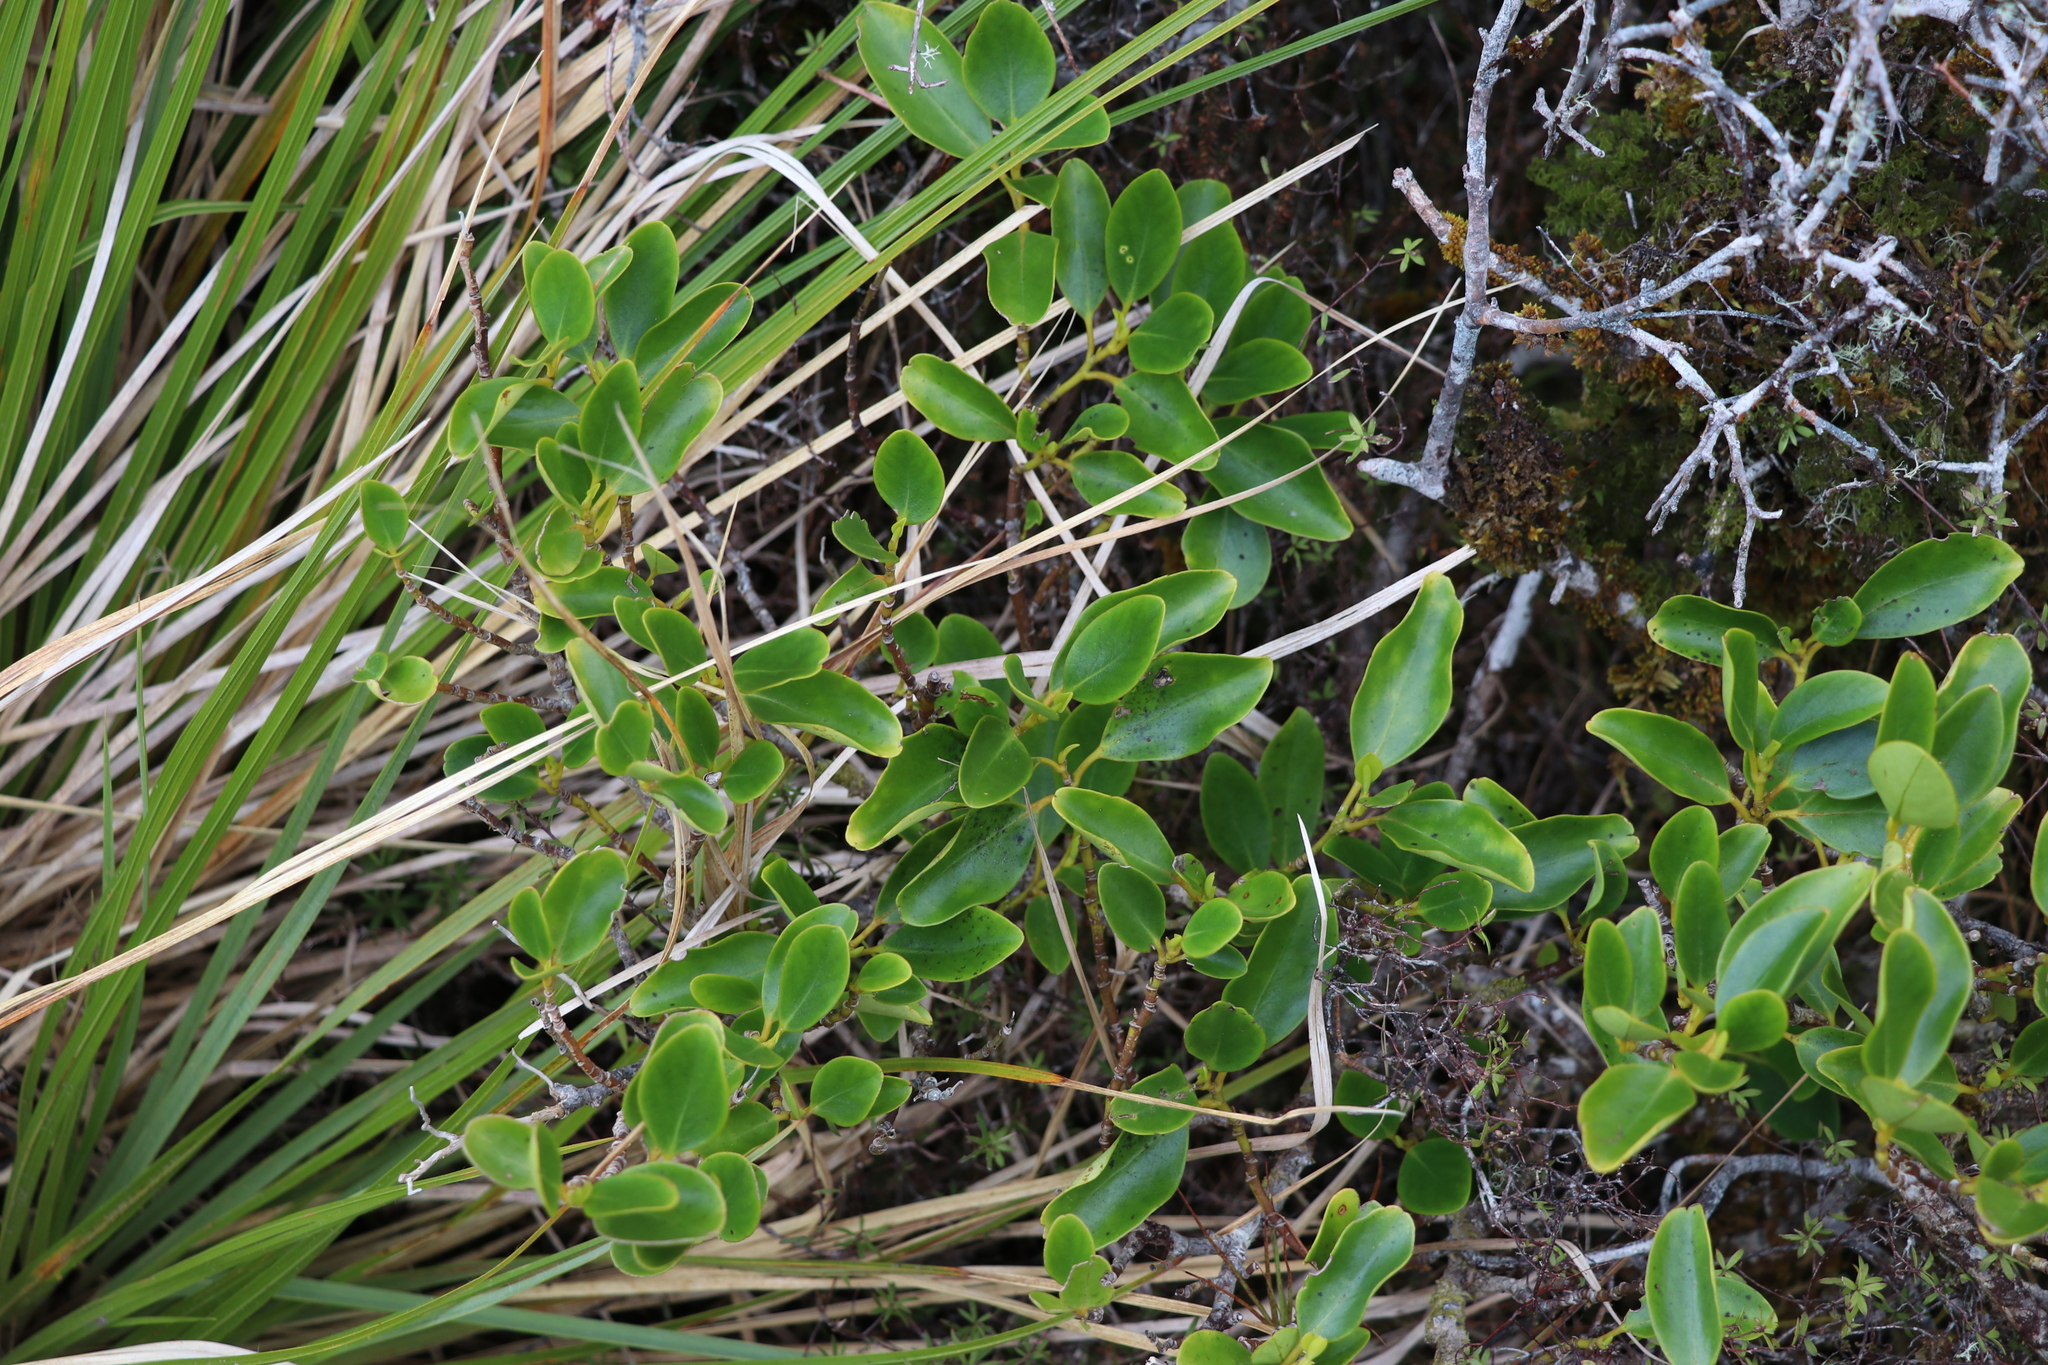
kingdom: Plantae
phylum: Tracheophyta
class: Magnoliopsida
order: Apiales
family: Griseliniaceae
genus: Griselinia
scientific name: Griselinia littoralis
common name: New zealand broadleaf
